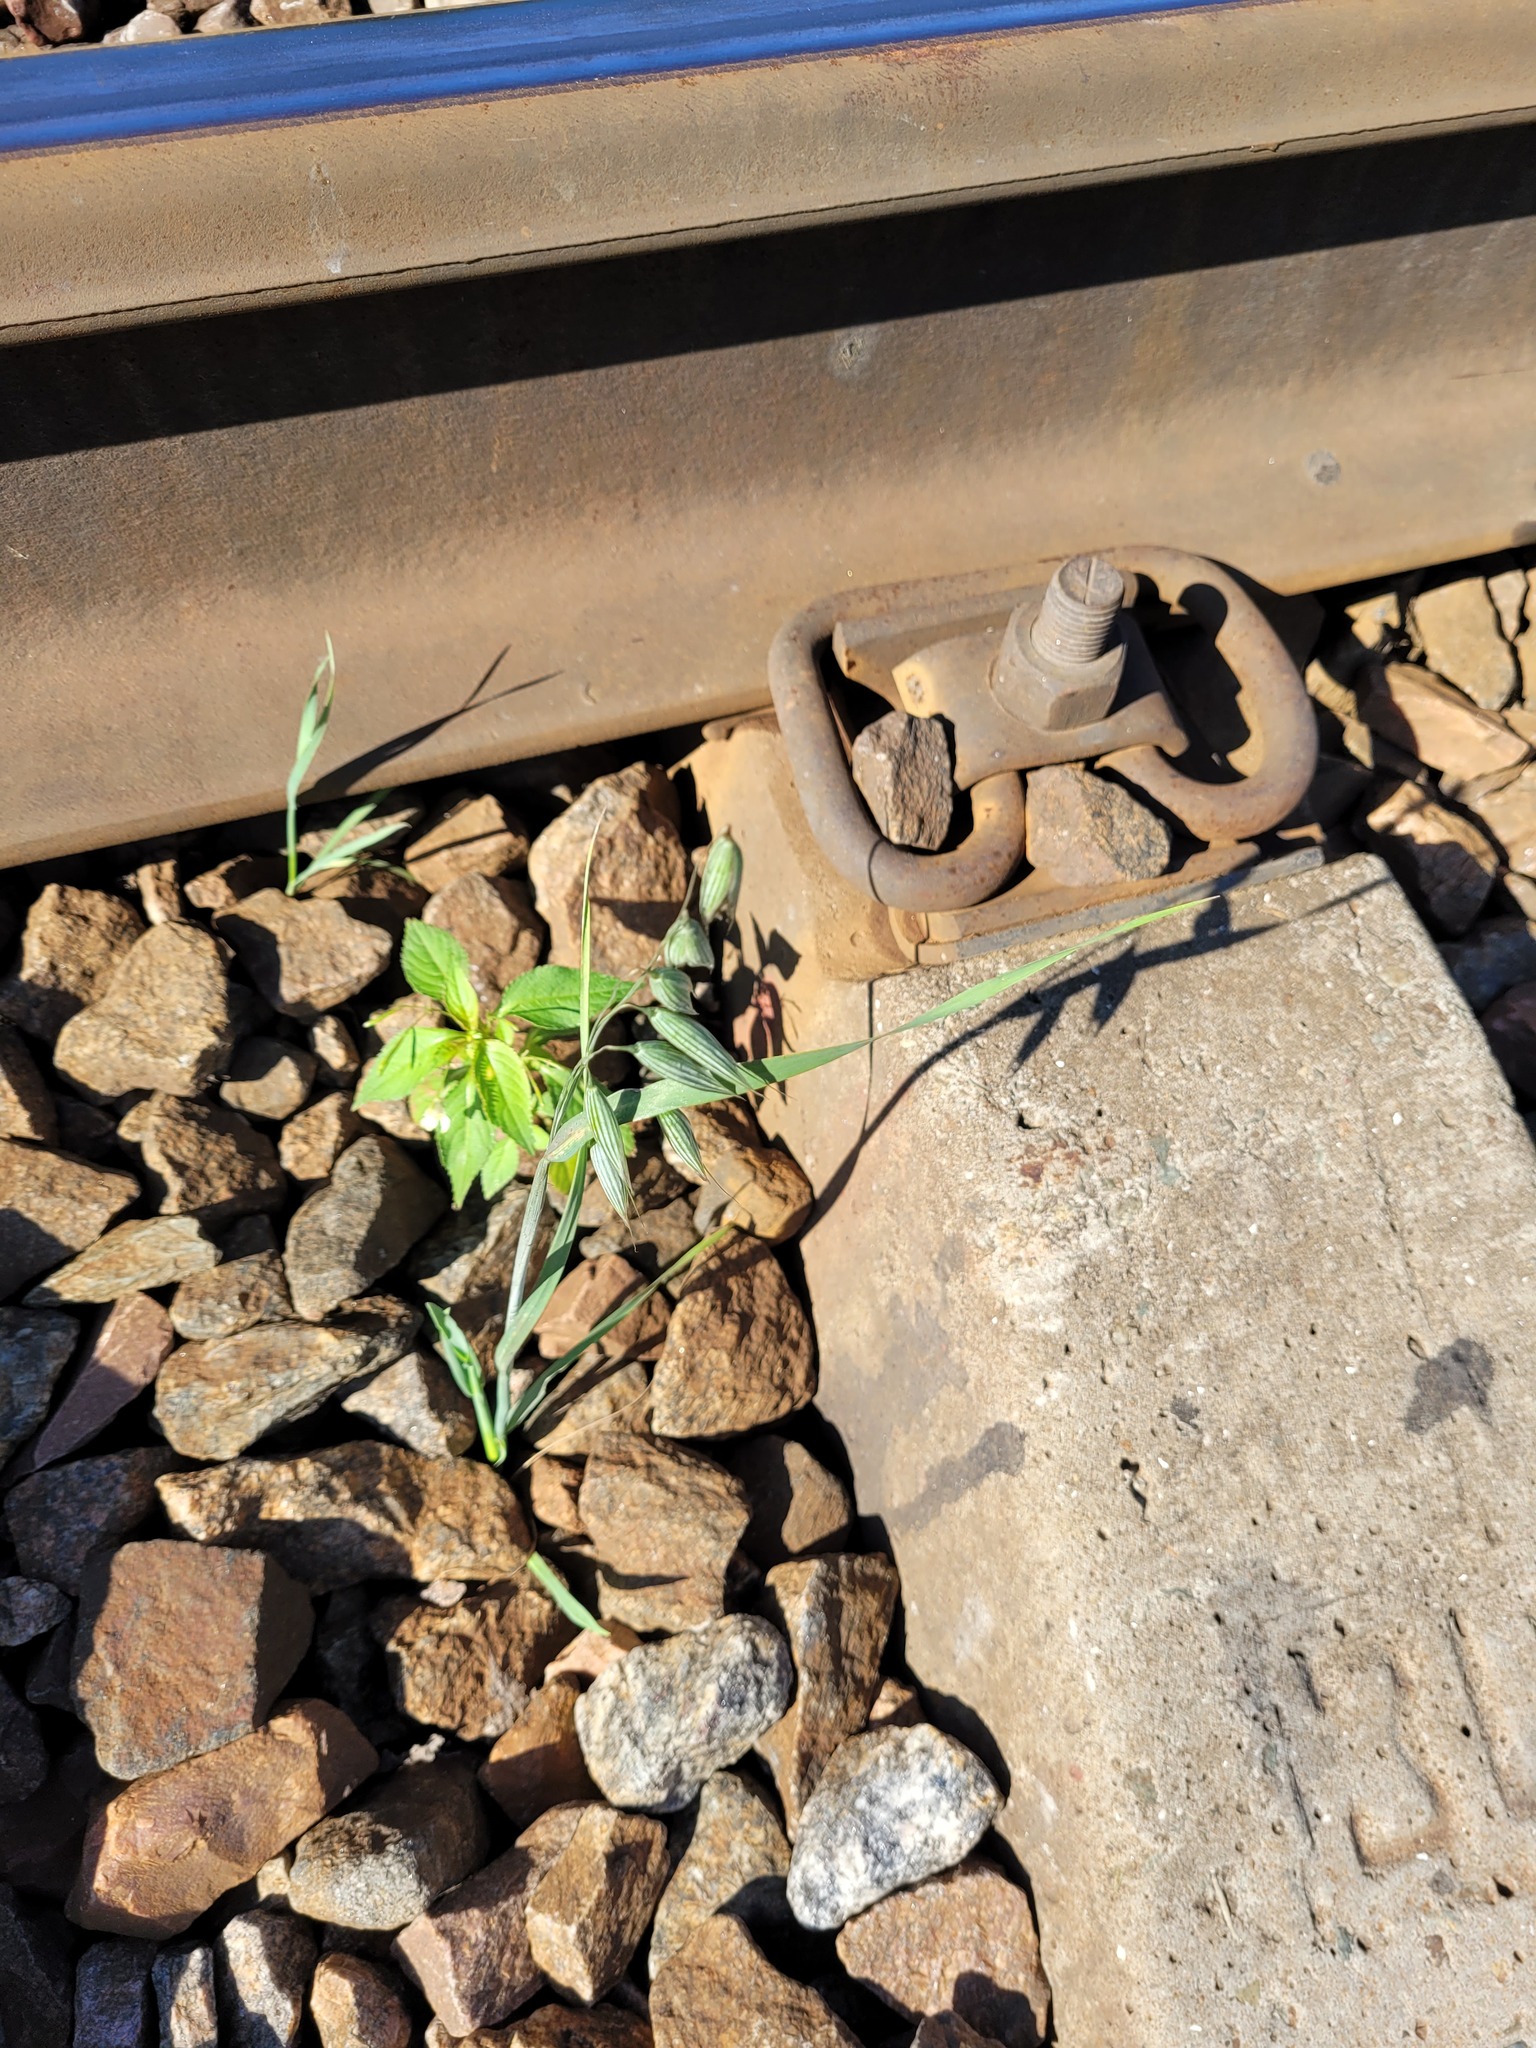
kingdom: Plantae
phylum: Tracheophyta
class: Liliopsida
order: Poales
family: Poaceae
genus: Avena
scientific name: Avena sativa
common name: Oat
